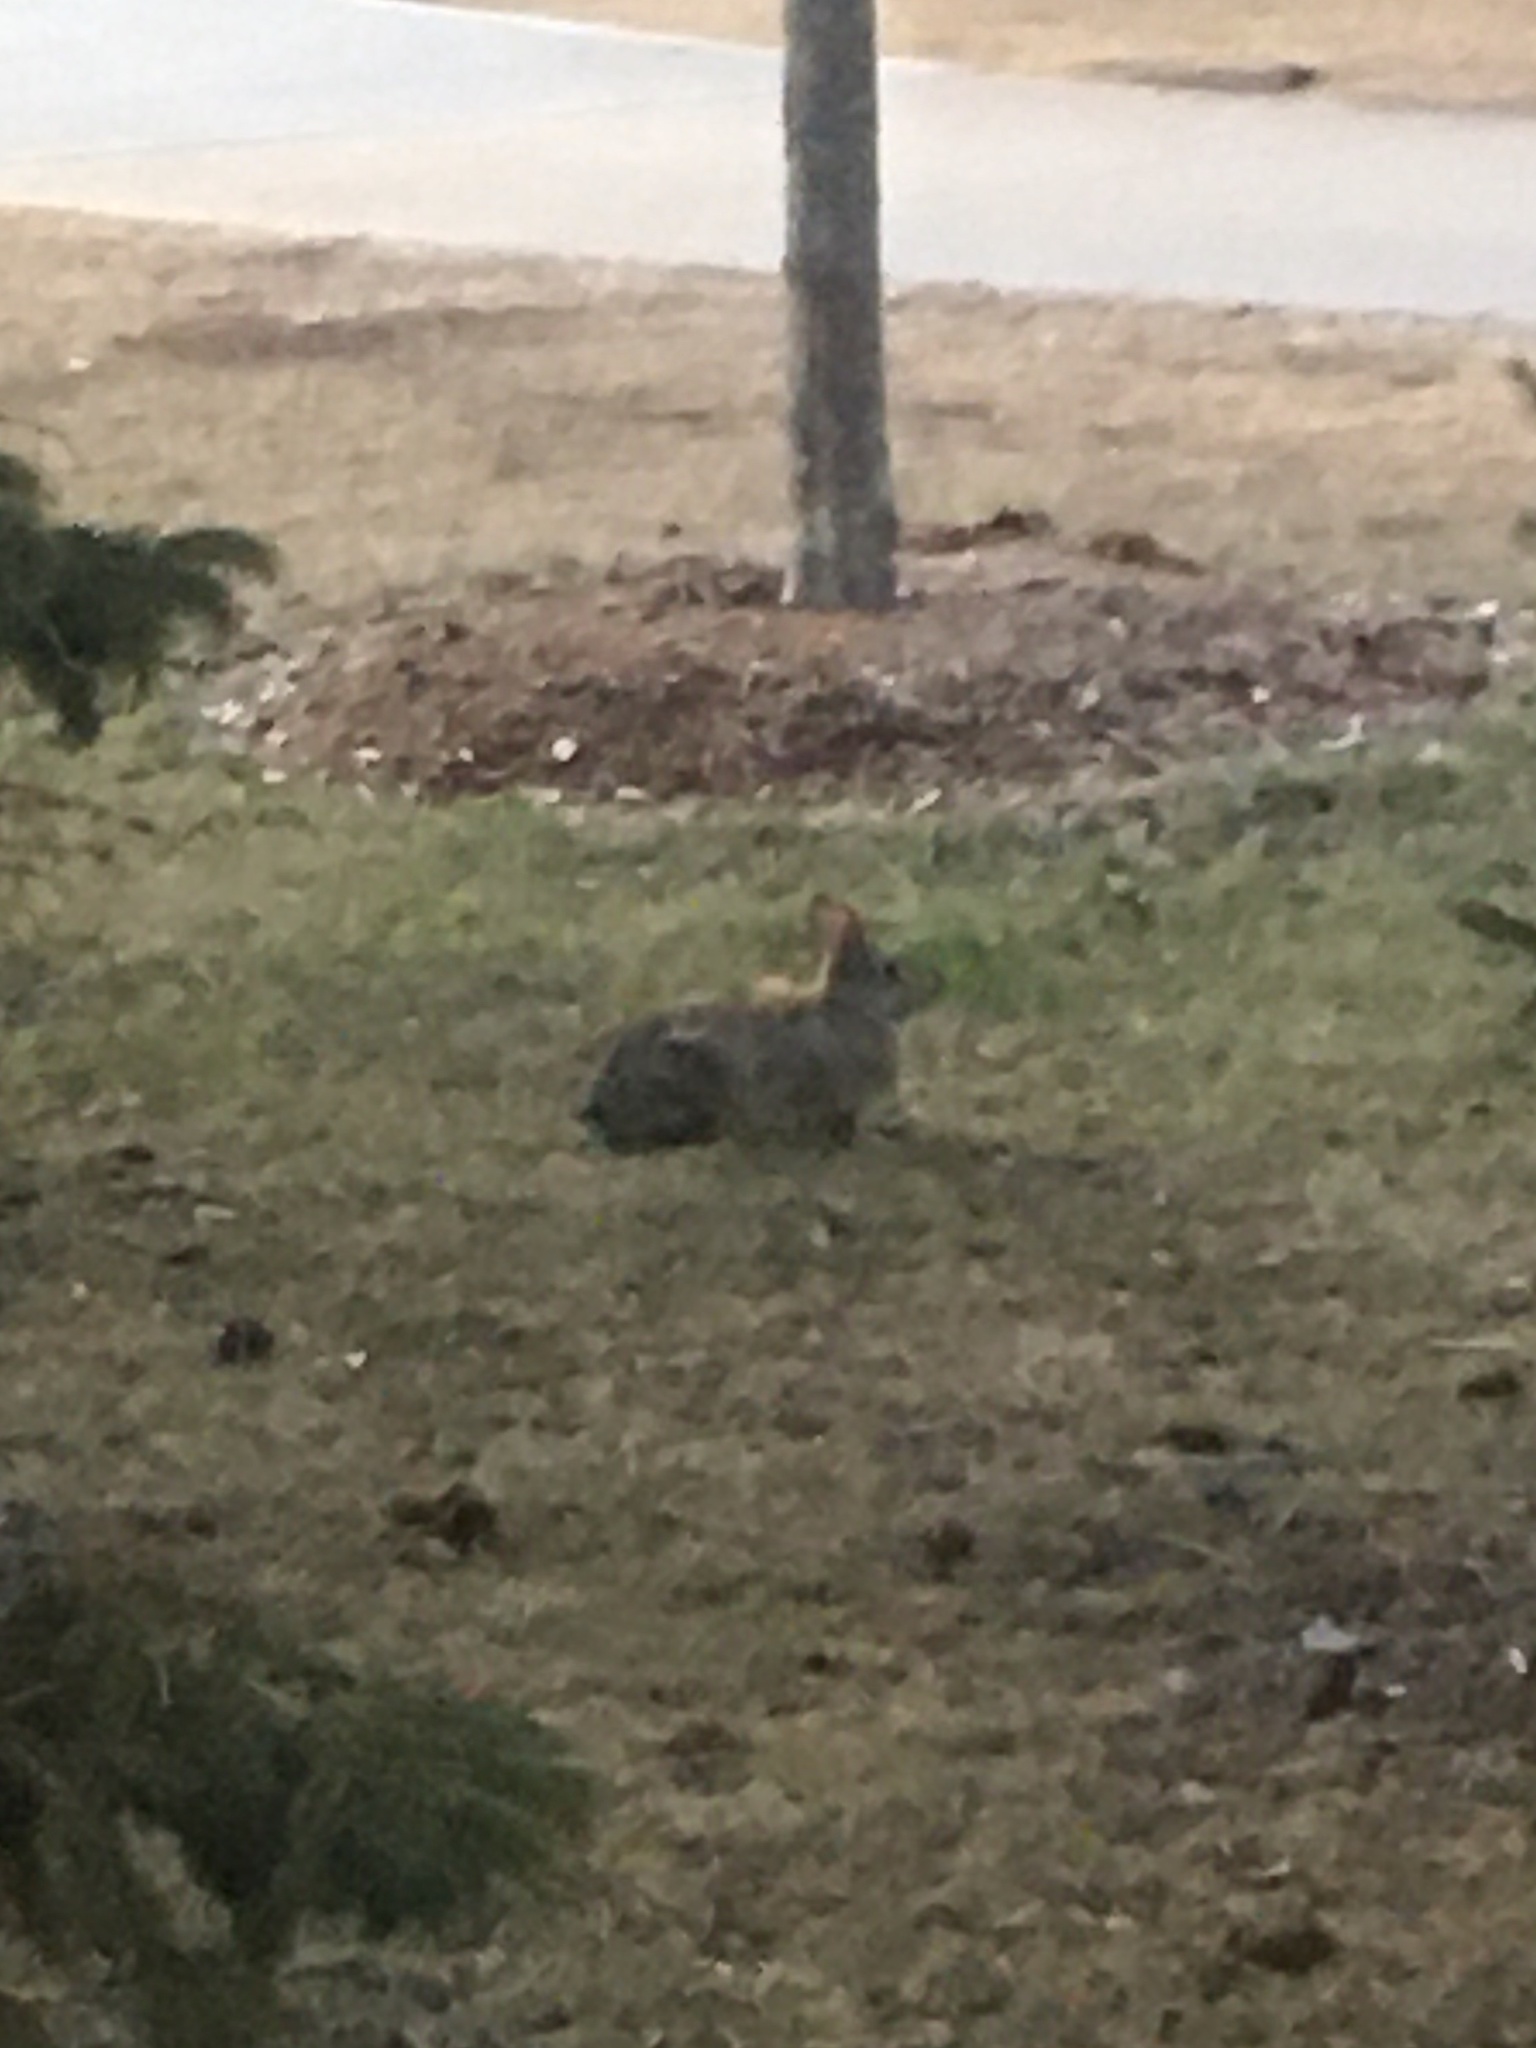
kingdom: Animalia
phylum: Chordata
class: Mammalia
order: Lagomorpha
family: Leporidae
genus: Sylvilagus
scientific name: Sylvilagus floridanus
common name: Eastern cottontail
